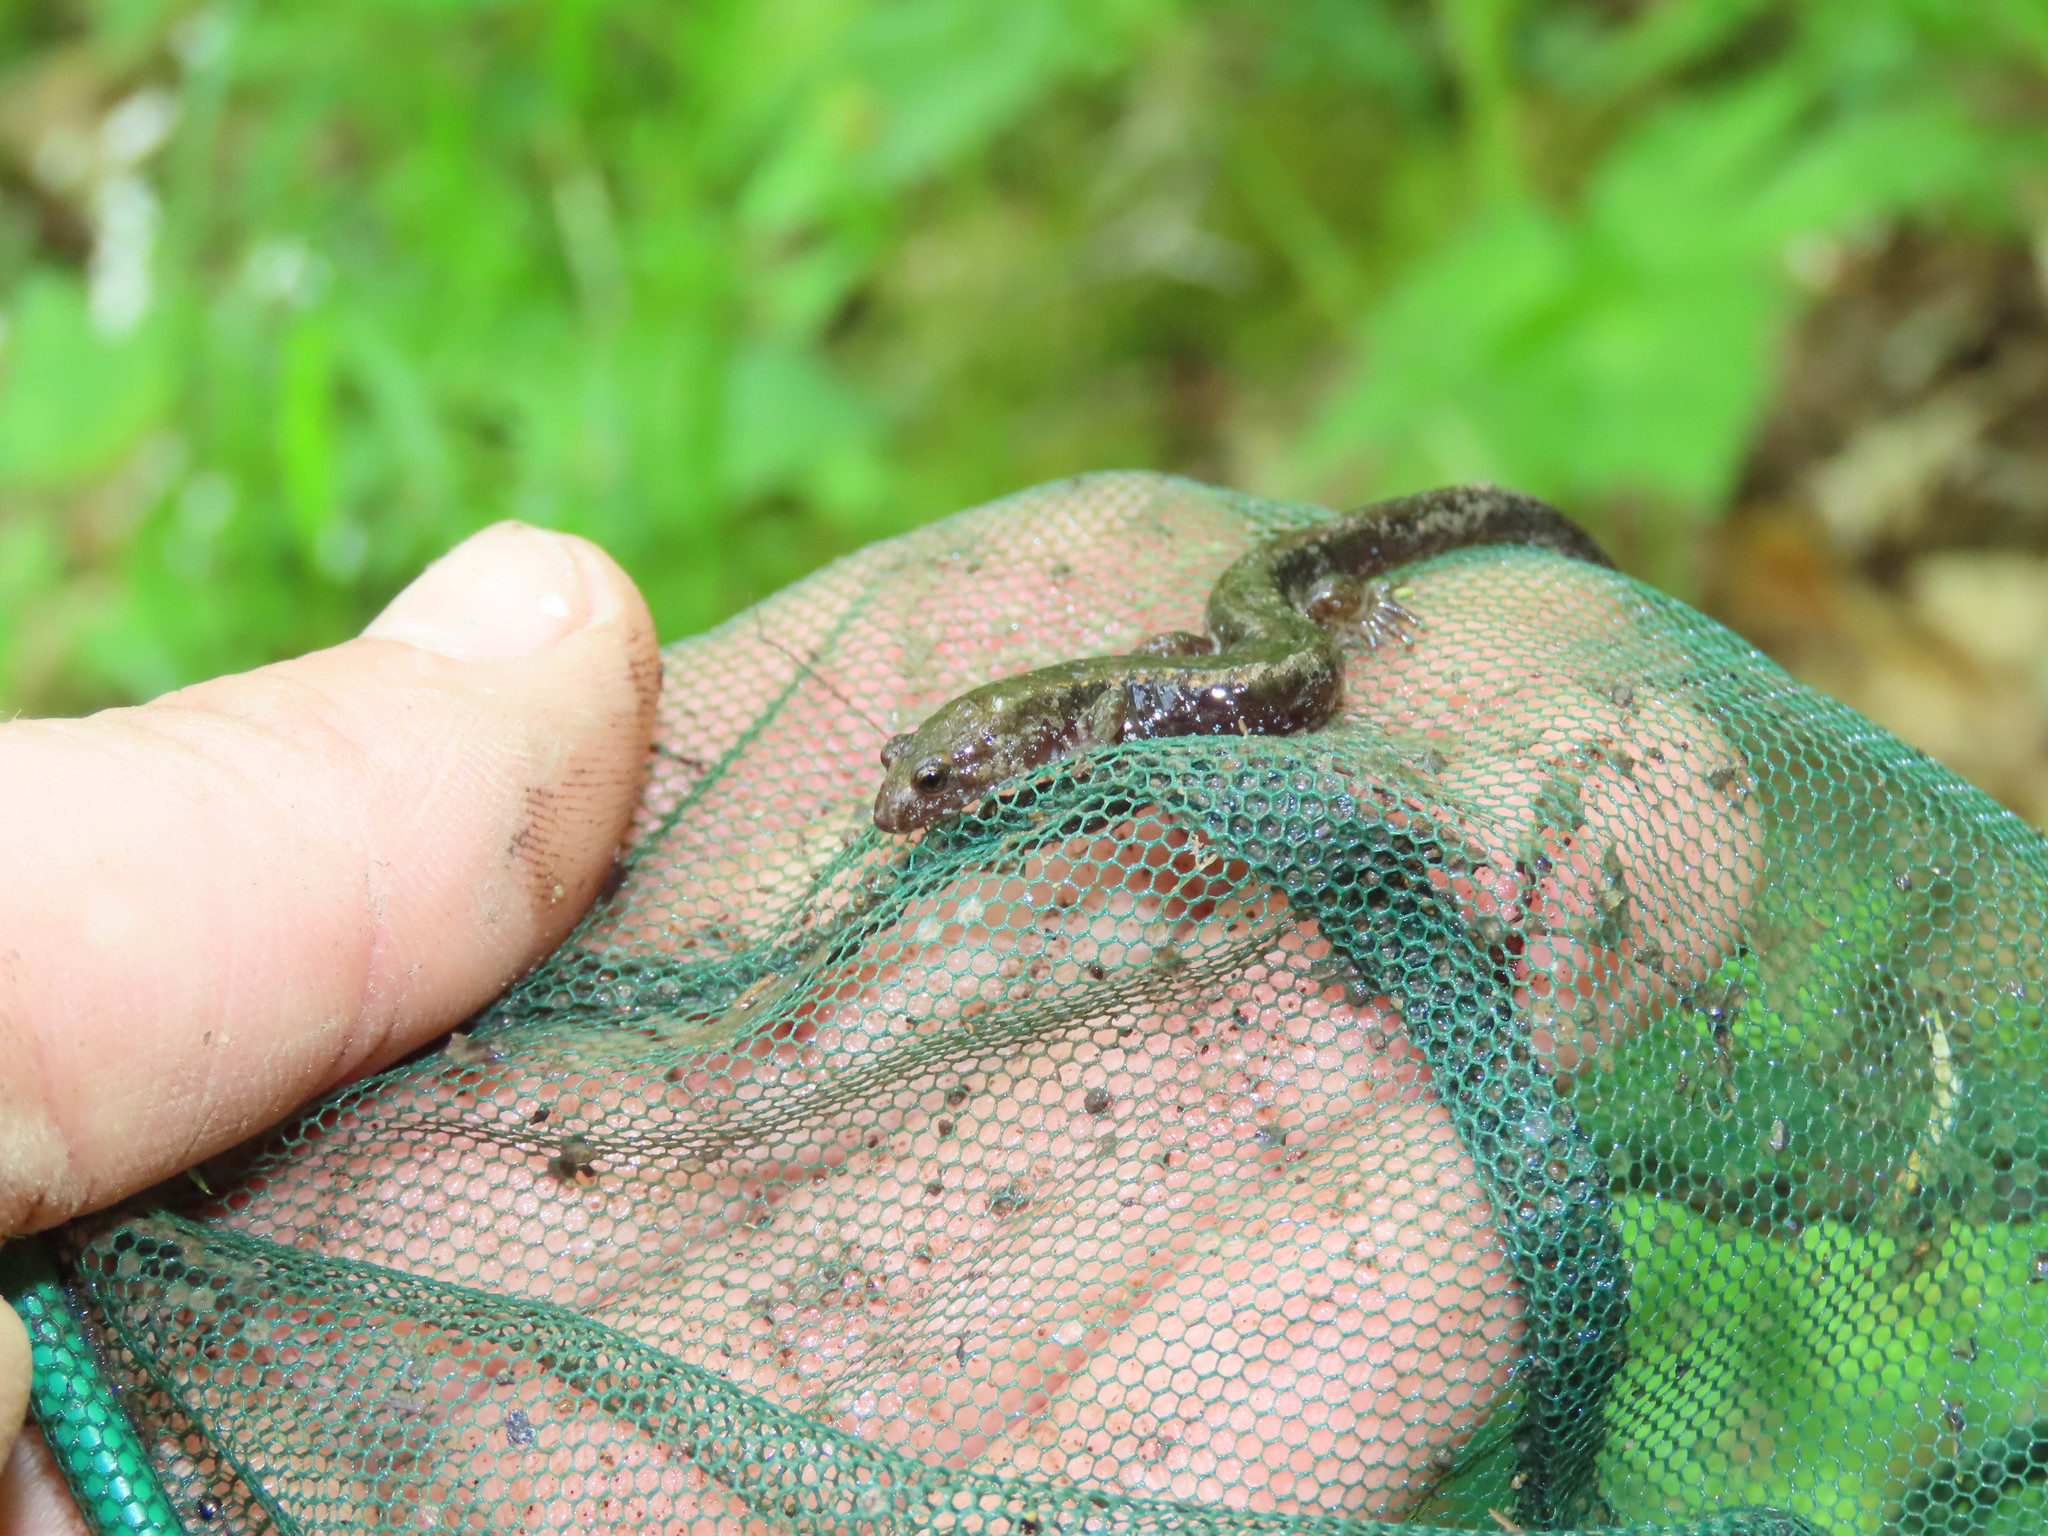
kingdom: Animalia
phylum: Chordata
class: Amphibia
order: Caudata
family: Plethodontidae
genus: Desmognathus
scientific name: Desmognathus ochrophaeus
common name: Allegheny mountain dusky salamander
